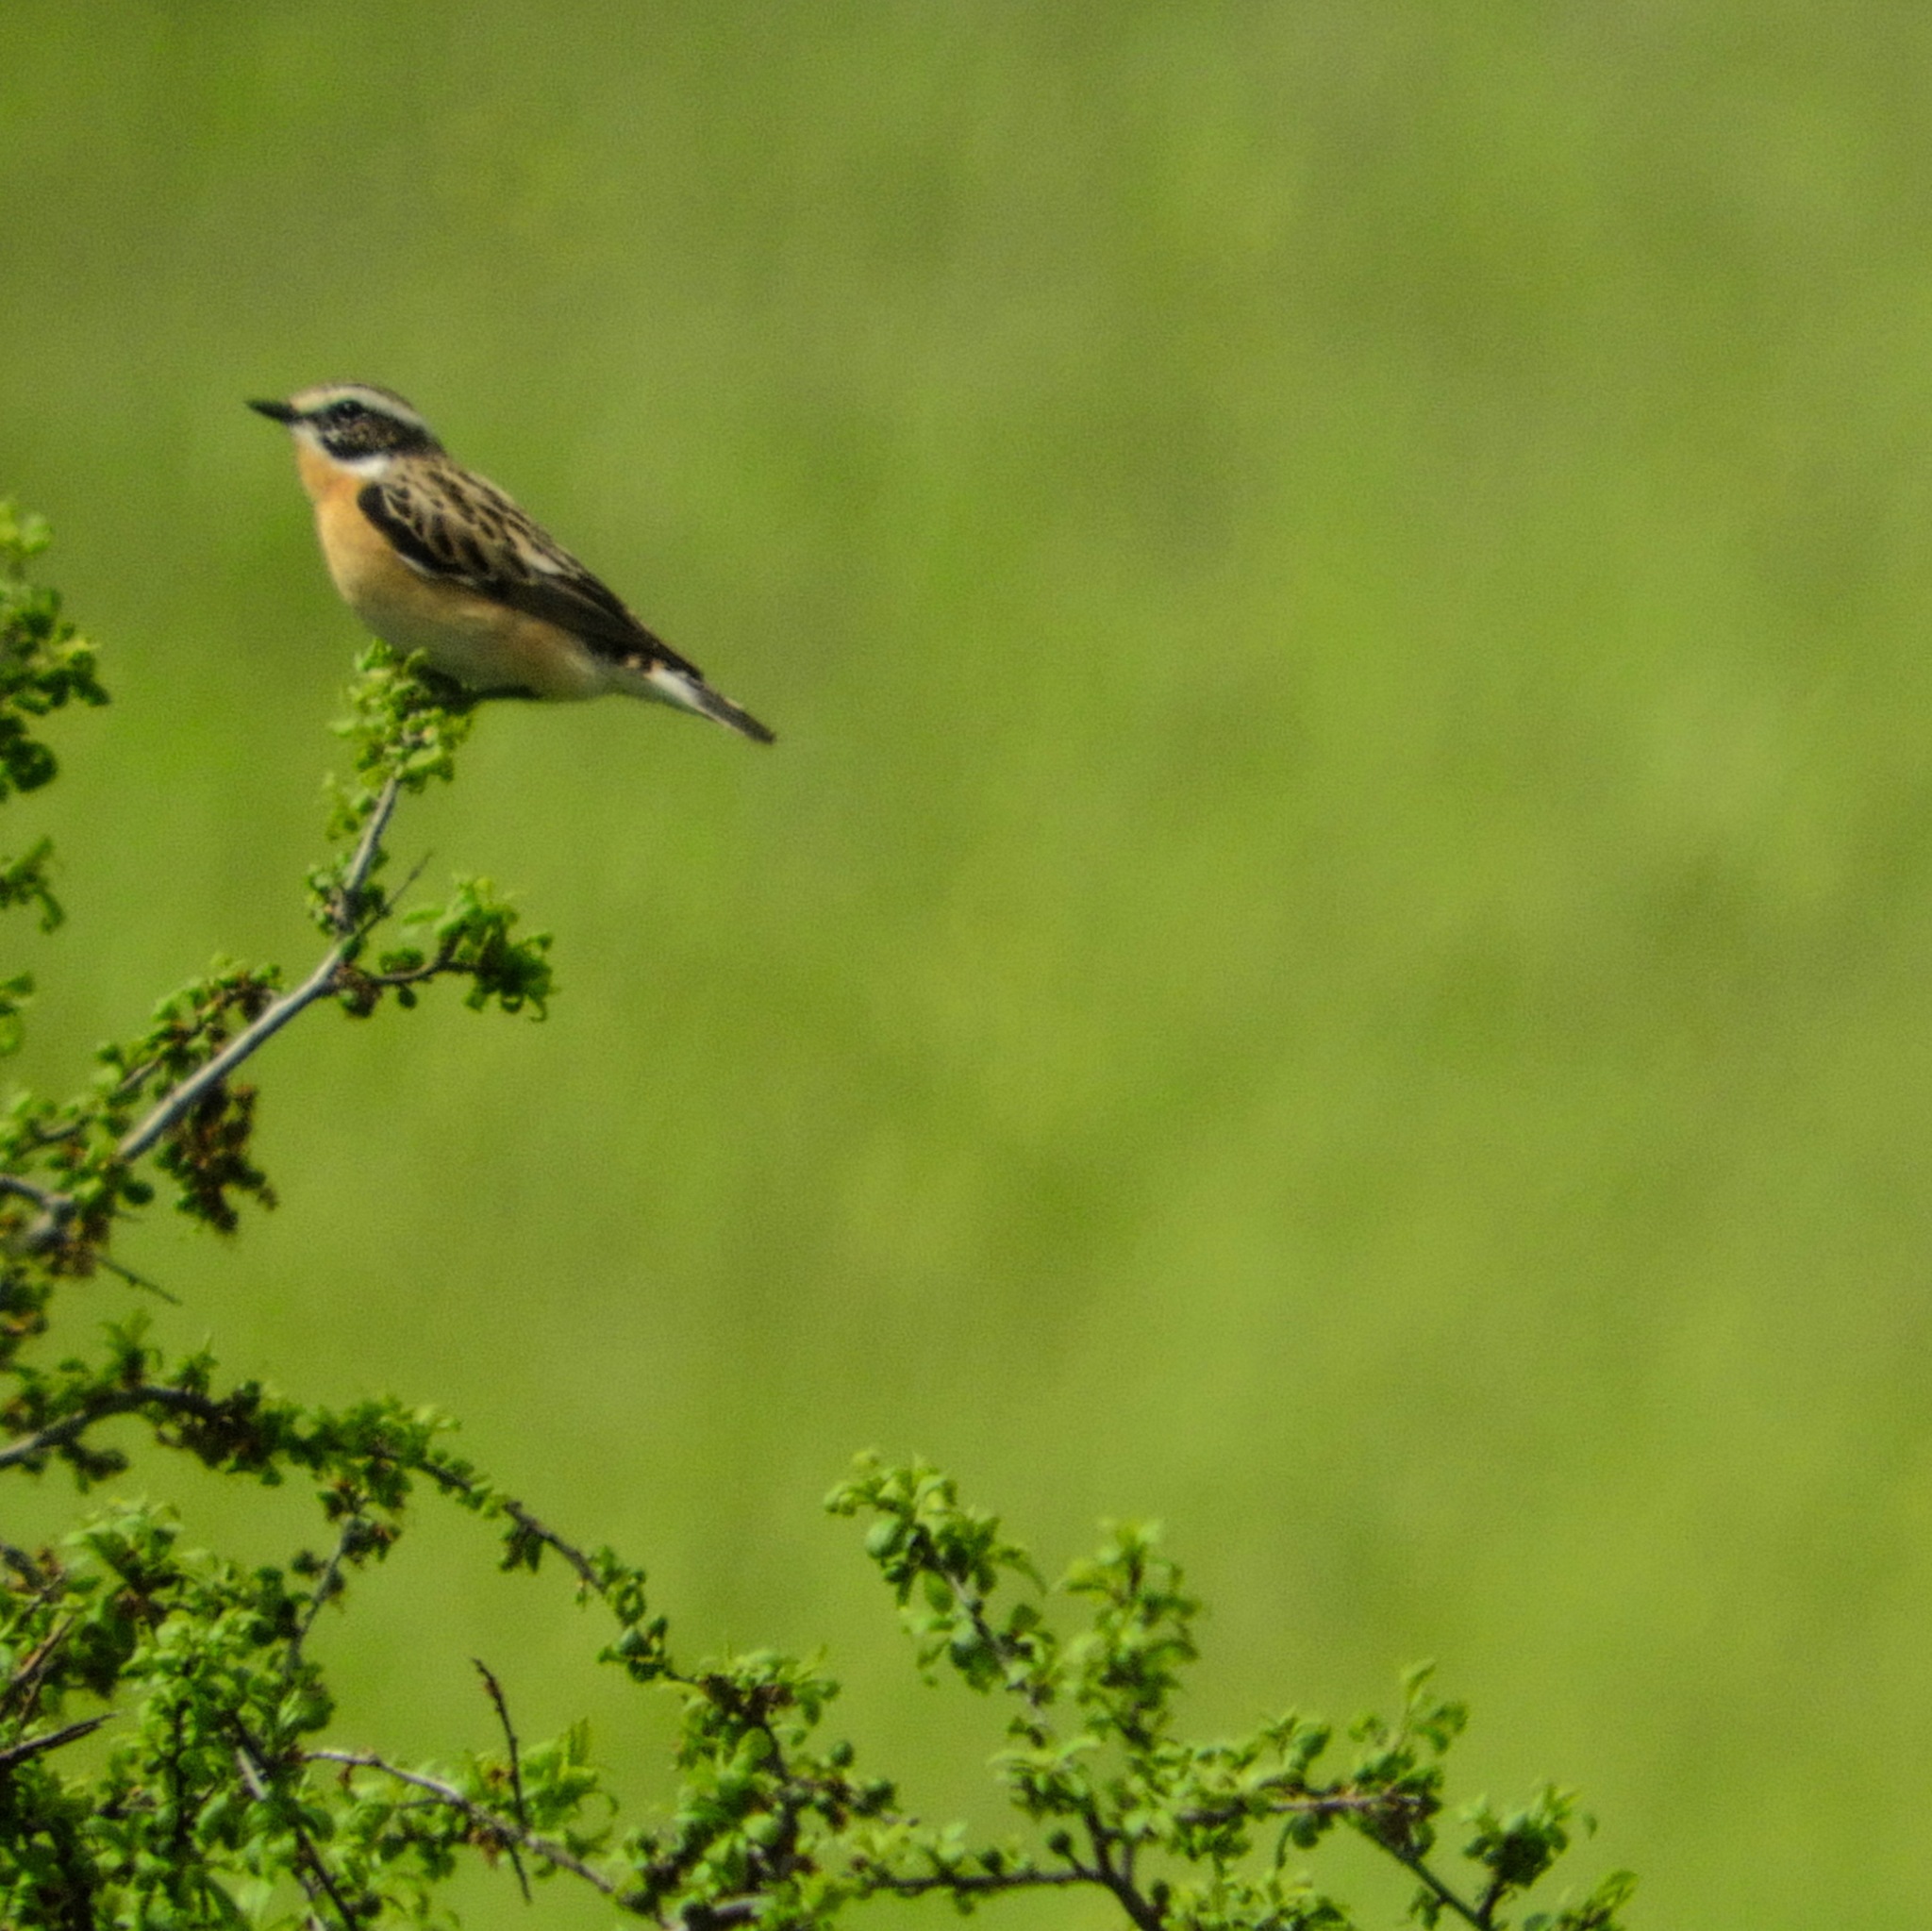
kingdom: Animalia
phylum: Chordata
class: Aves
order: Passeriformes
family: Muscicapidae
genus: Saxicola
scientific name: Saxicola rubetra
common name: Whinchat
